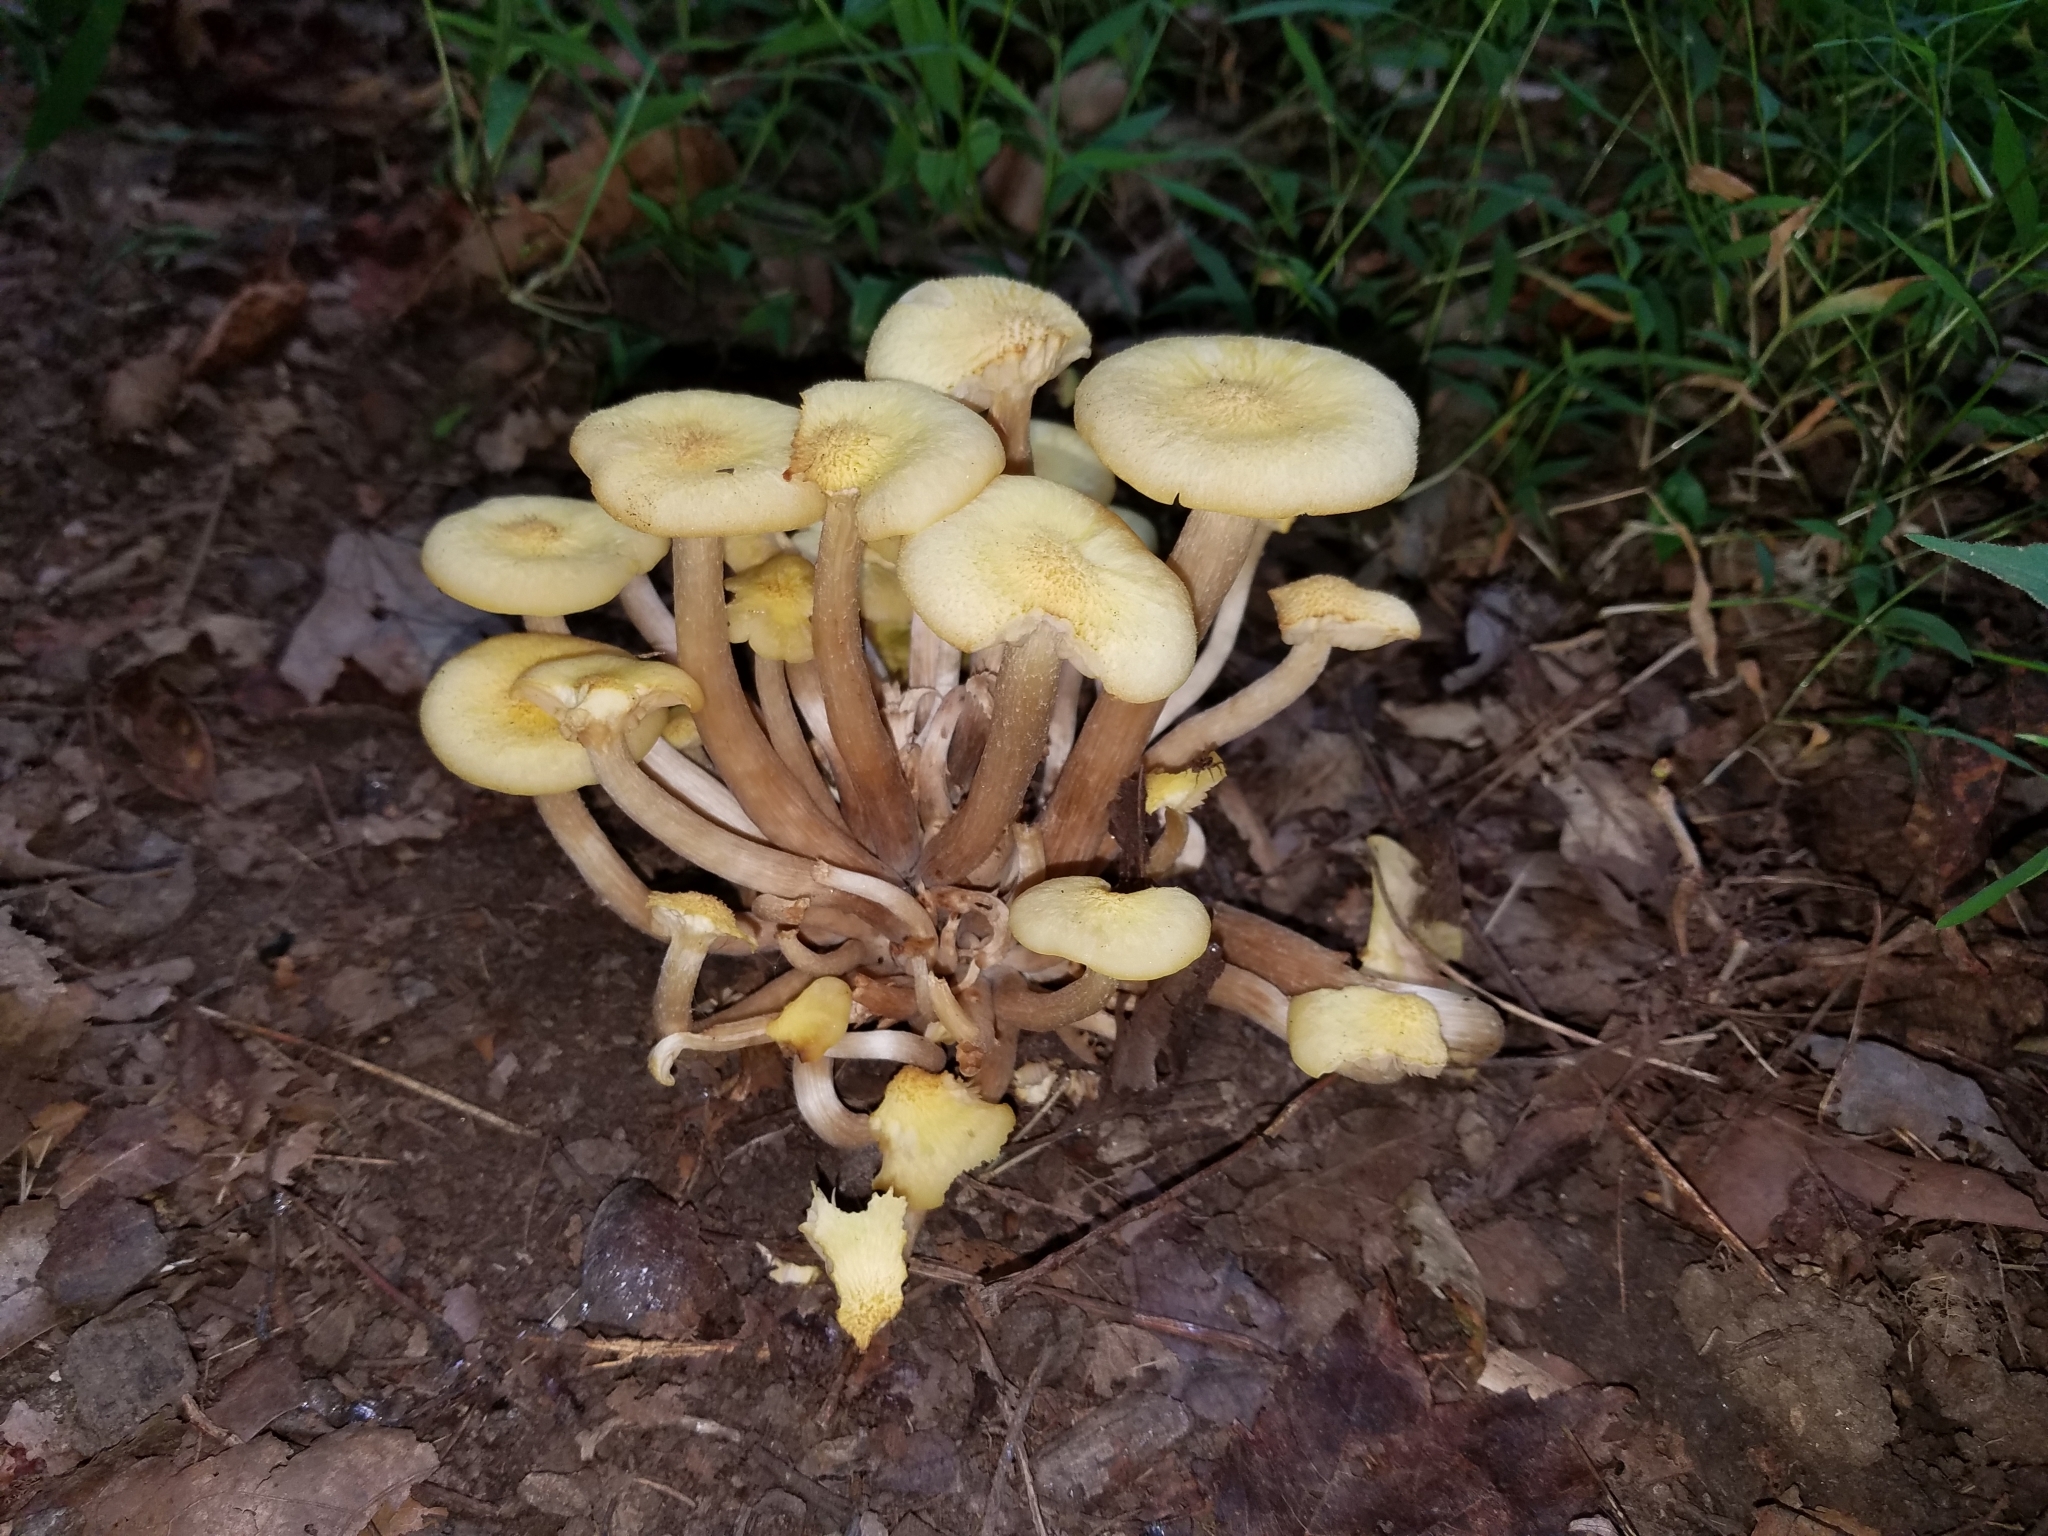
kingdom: Fungi
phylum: Basidiomycota
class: Agaricomycetes
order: Agaricales
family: Physalacriaceae
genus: Desarmillaria
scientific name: Desarmillaria caespitosa
